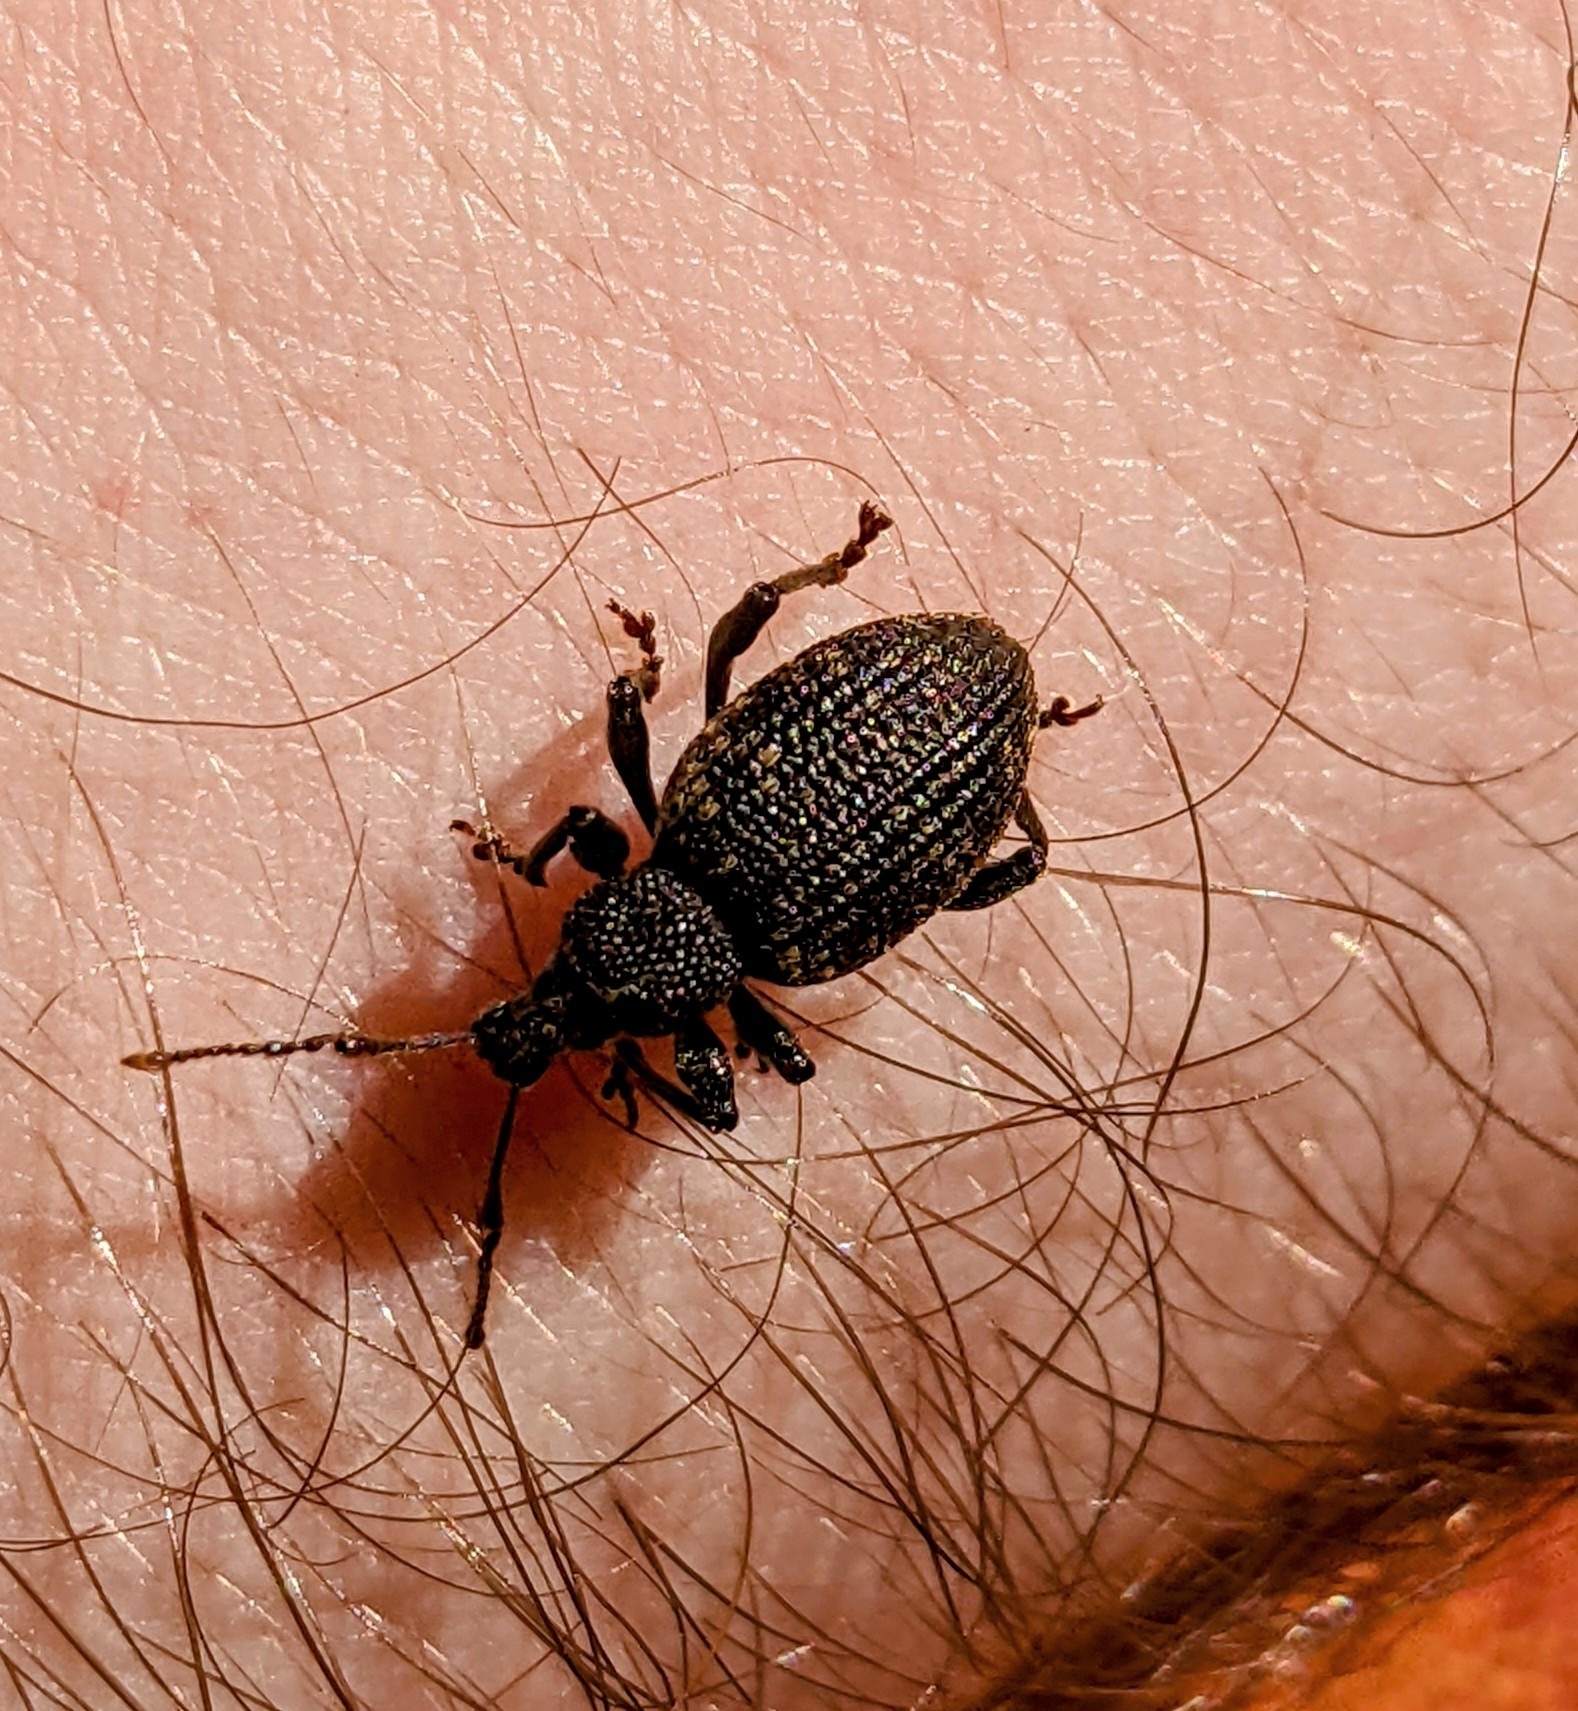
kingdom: Animalia
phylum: Arthropoda
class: Insecta
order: Coleoptera
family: Curculionidae
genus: Otiorhynchus
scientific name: Otiorhynchus sulcatus
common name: Black vine weevil
